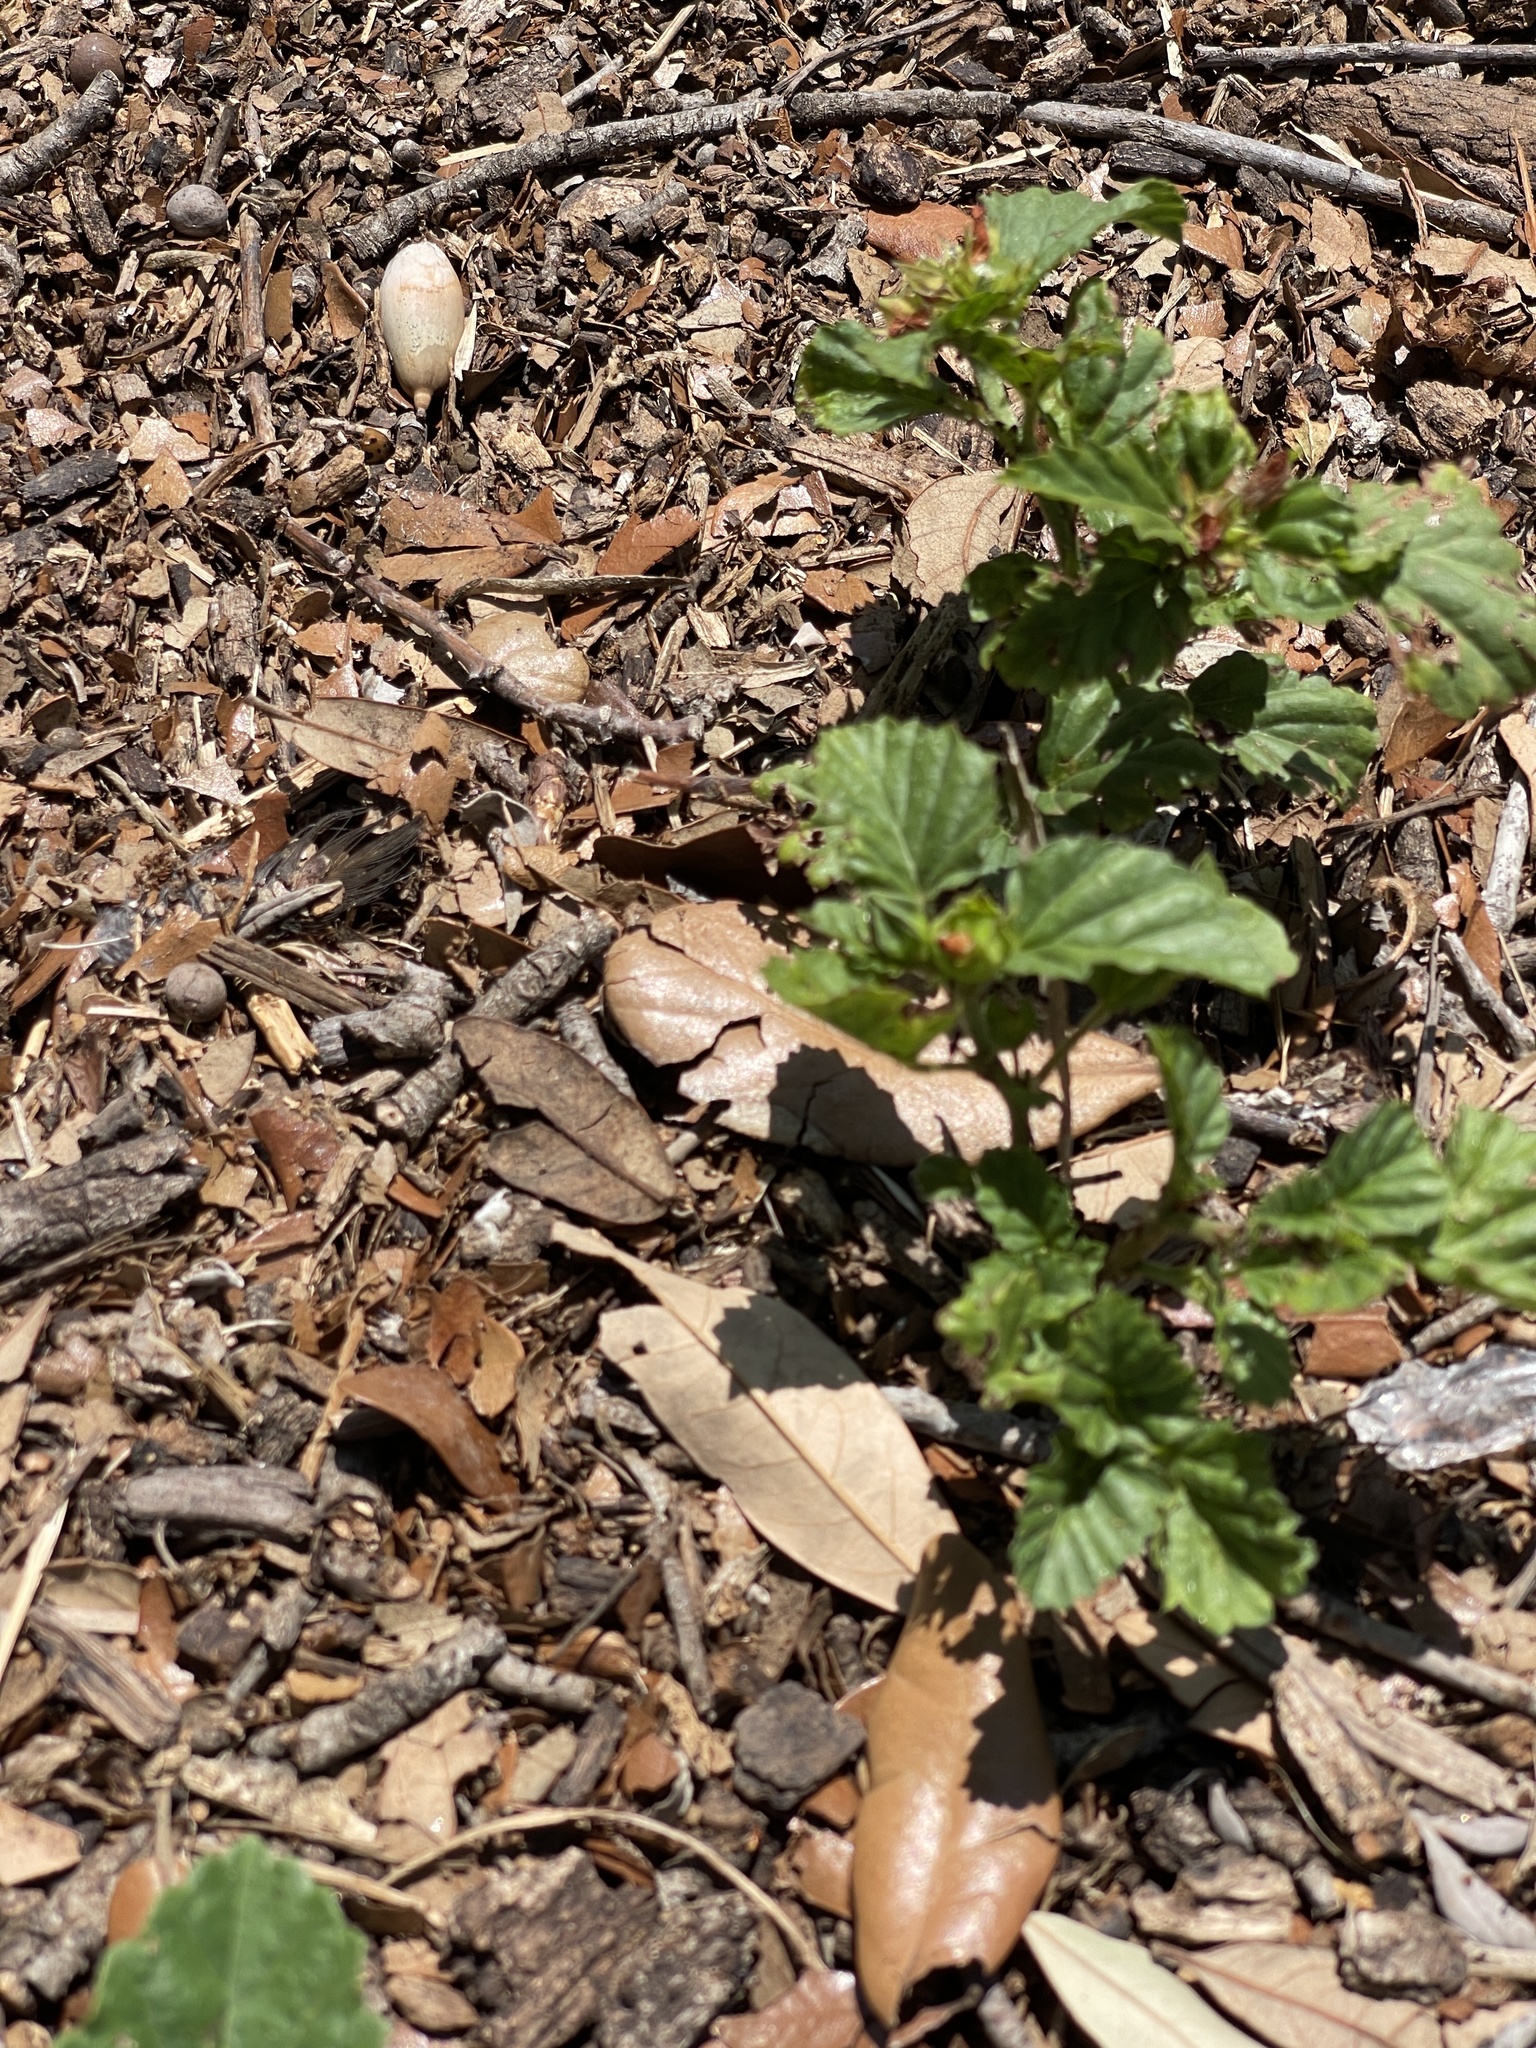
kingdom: Plantae
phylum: Tracheophyta
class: Magnoliopsida
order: Malvales
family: Malvaceae
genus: Malvastrum
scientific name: Malvastrum coromandelianum
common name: Threelobe false mallow
